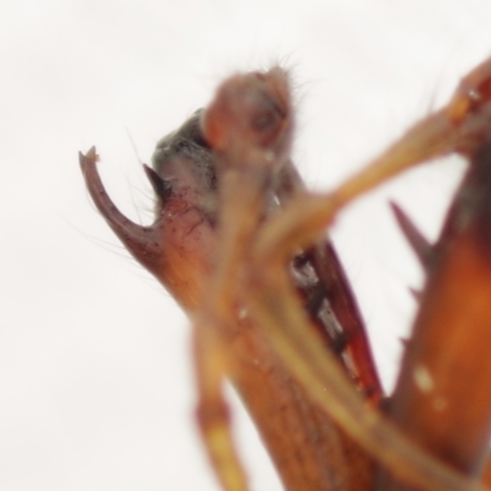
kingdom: Animalia
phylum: Arthropoda
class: Arachnida
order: Araneae
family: Tetragnathidae
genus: Tetragnatha
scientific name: Tetragnatha nigrita
